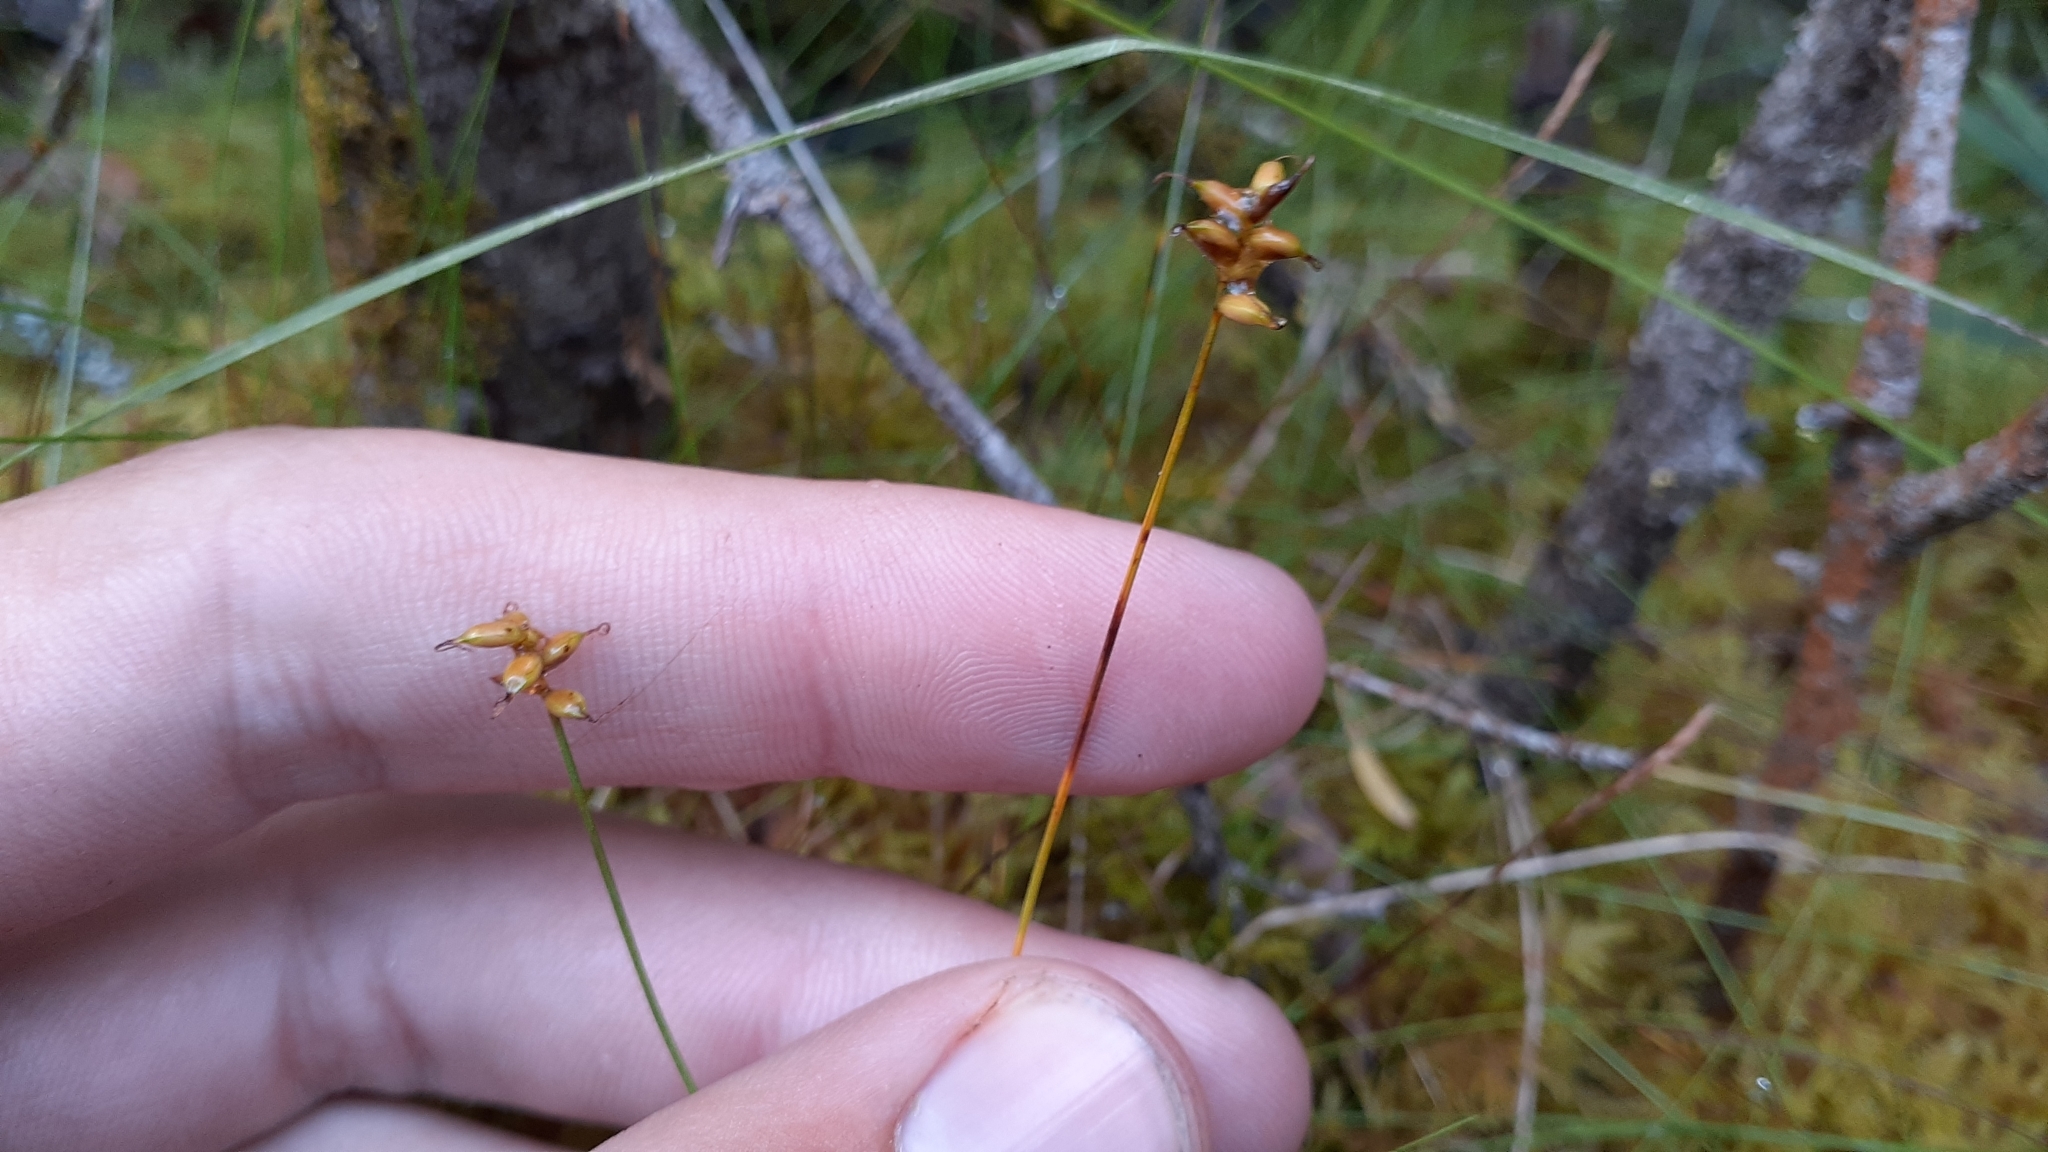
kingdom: Plantae
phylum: Tracheophyta
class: Liliopsida
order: Poales
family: Cyperaceae
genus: Carex
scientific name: Carex alascana
